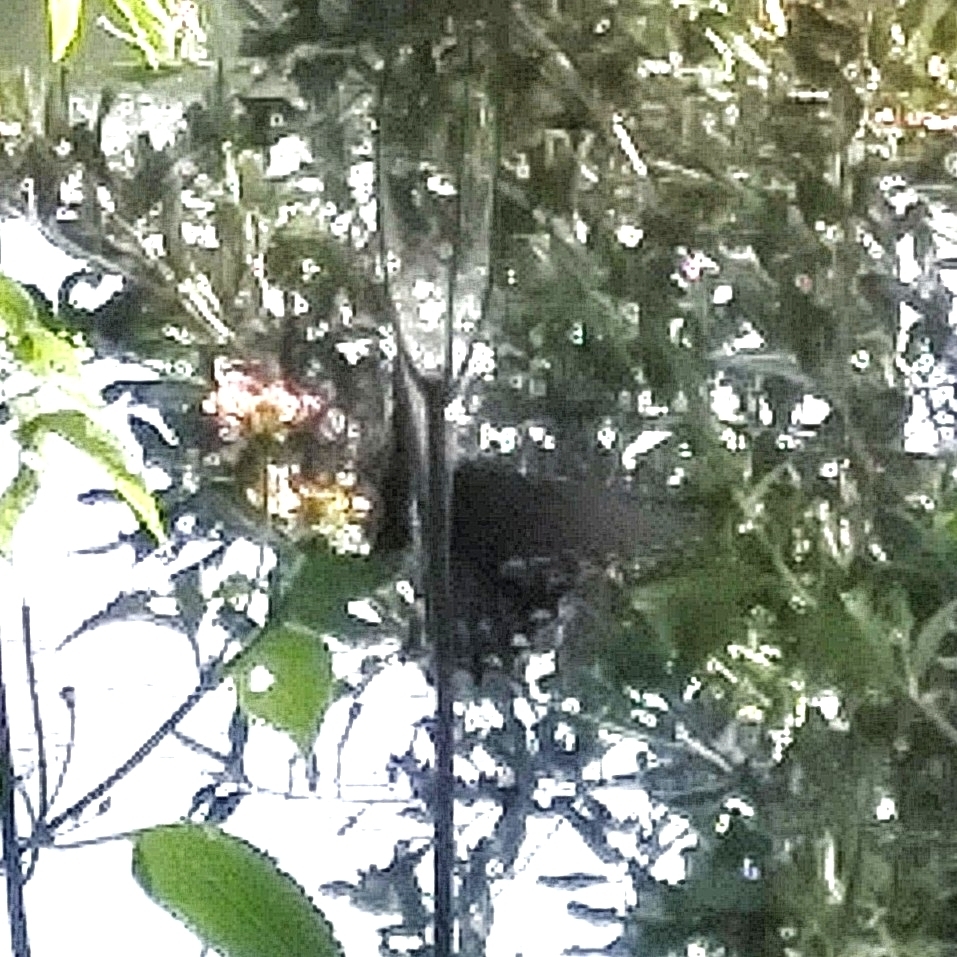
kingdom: Animalia
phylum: Arthropoda
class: Insecta
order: Lepidoptera
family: Papilionidae
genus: Battus
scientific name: Battus philenor
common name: Pipevine swallowtail
